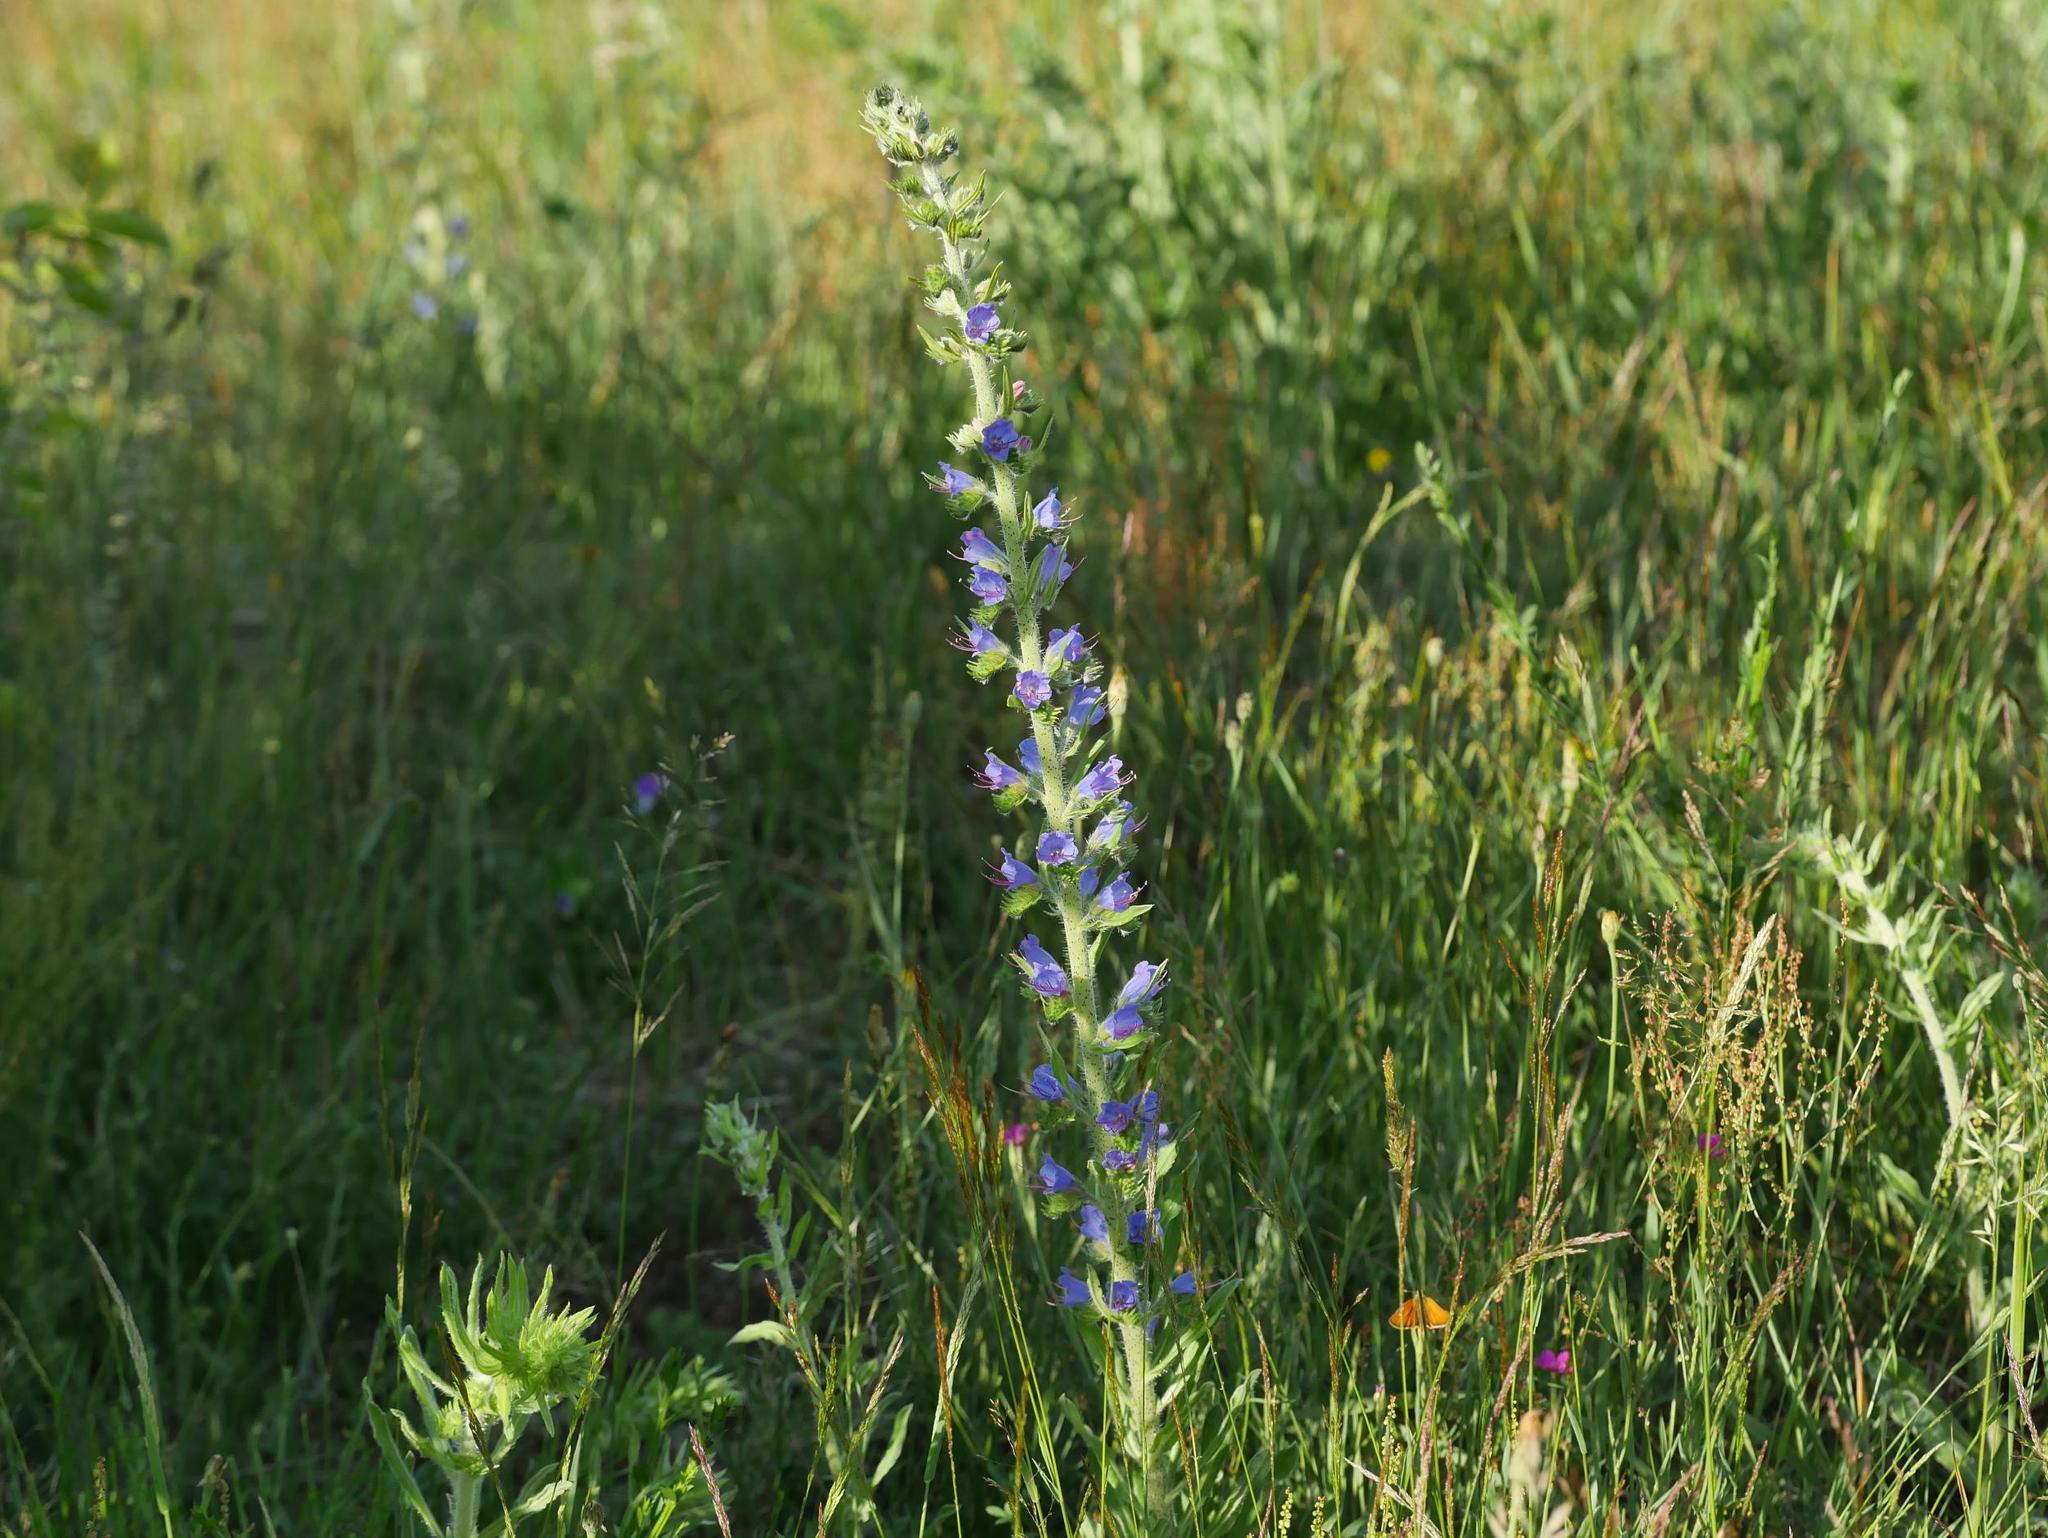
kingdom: Plantae
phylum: Tracheophyta
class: Magnoliopsida
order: Boraginales
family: Boraginaceae
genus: Echium
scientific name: Echium vulgare
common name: Common viper's bugloss
